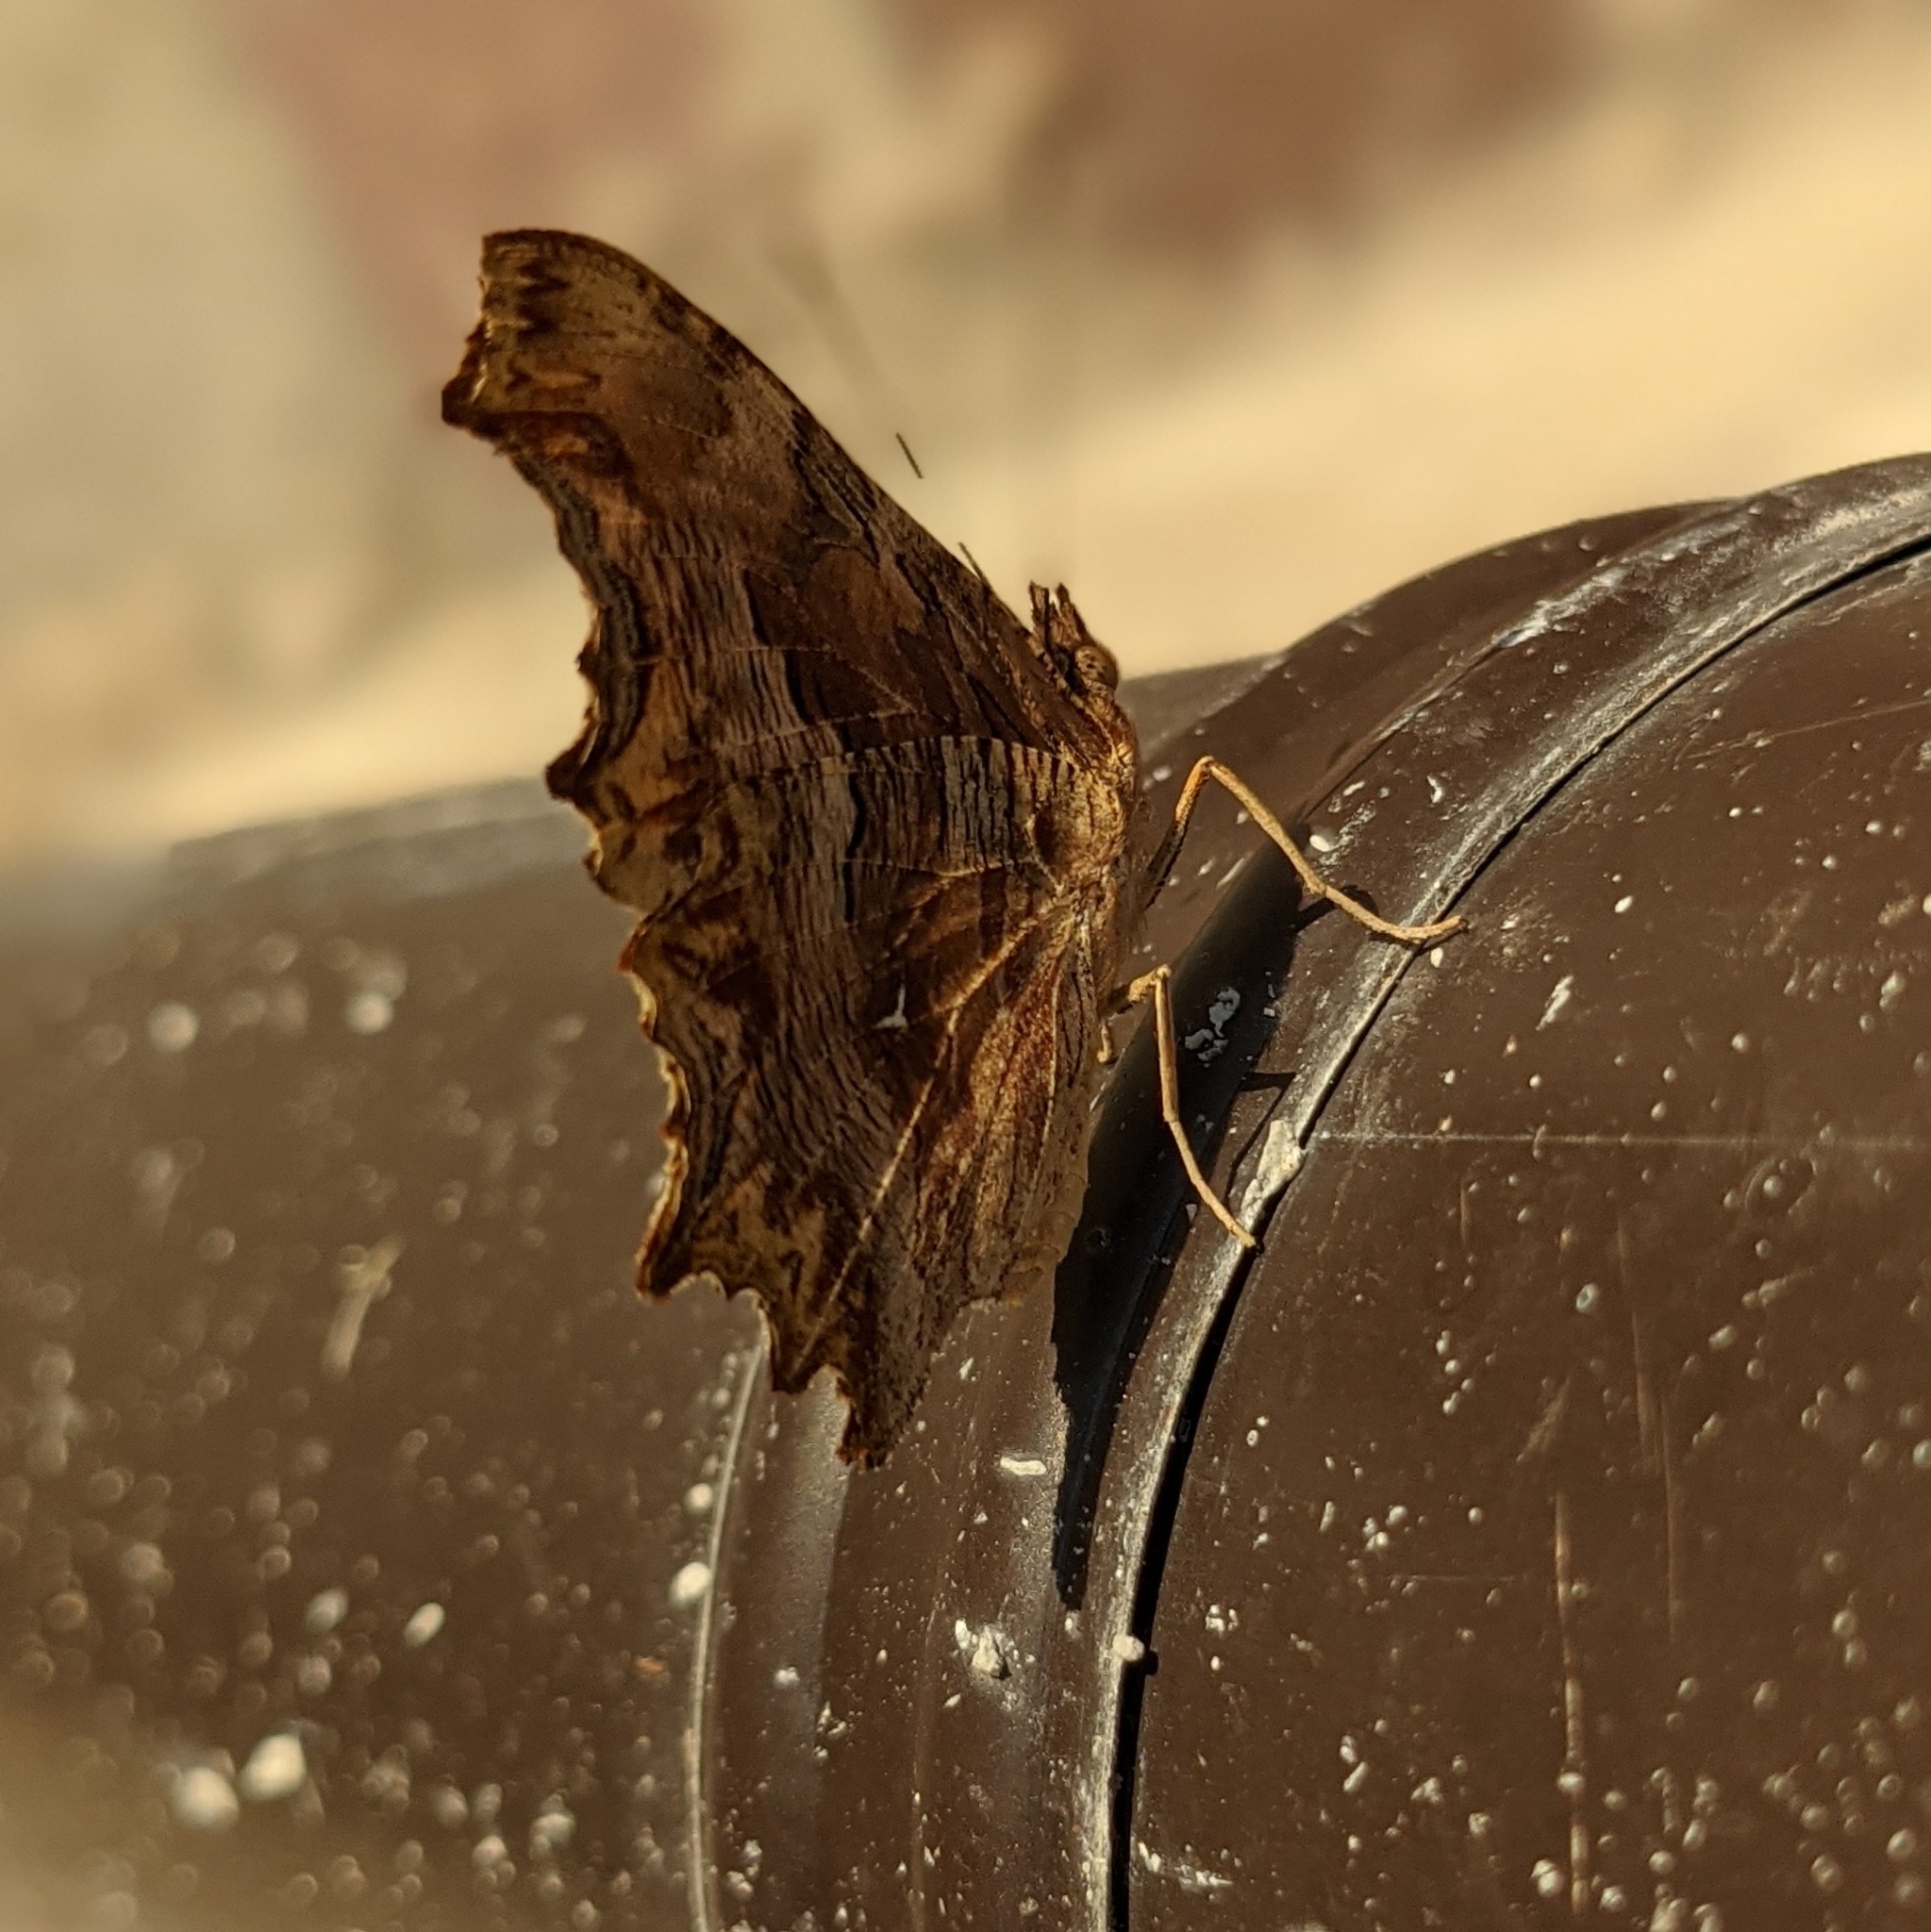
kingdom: Animalia
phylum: Arthropoda
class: Insecta
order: Lepidoptera
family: Nymphalidae
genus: Polygonia
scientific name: Polygonia egea
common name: Southern comma
